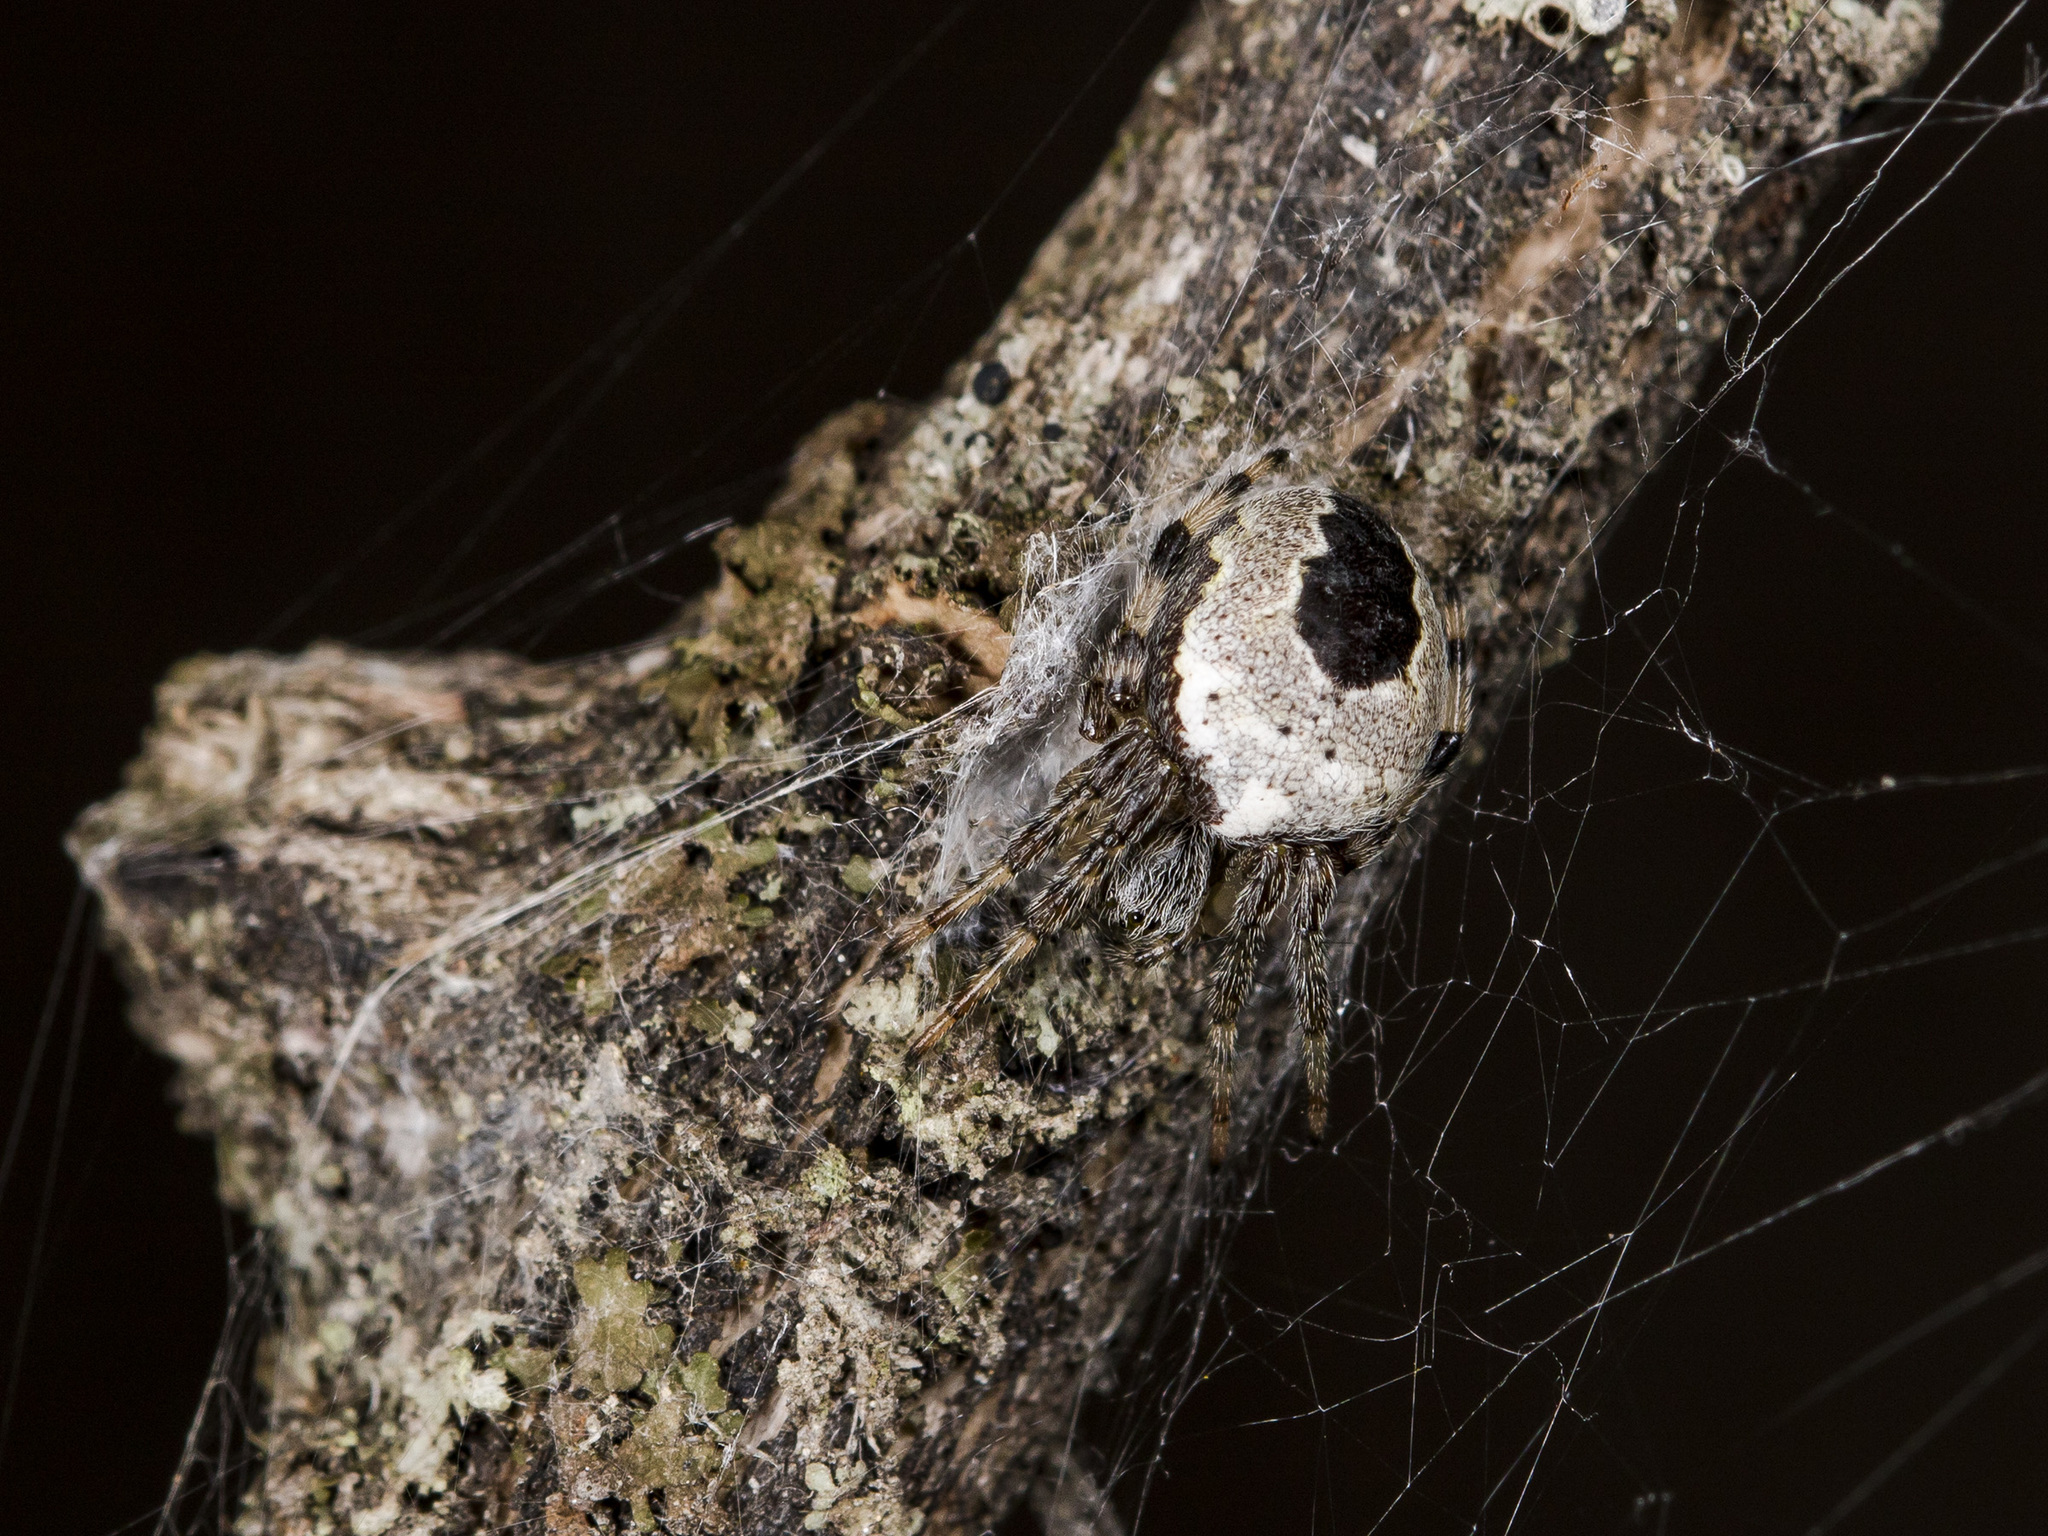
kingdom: Animalia
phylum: Arthropoda
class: Arachnida
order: Araneae
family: Araneidae
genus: Araneus
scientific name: Araneus marmoreus
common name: Marbled orbweaver
